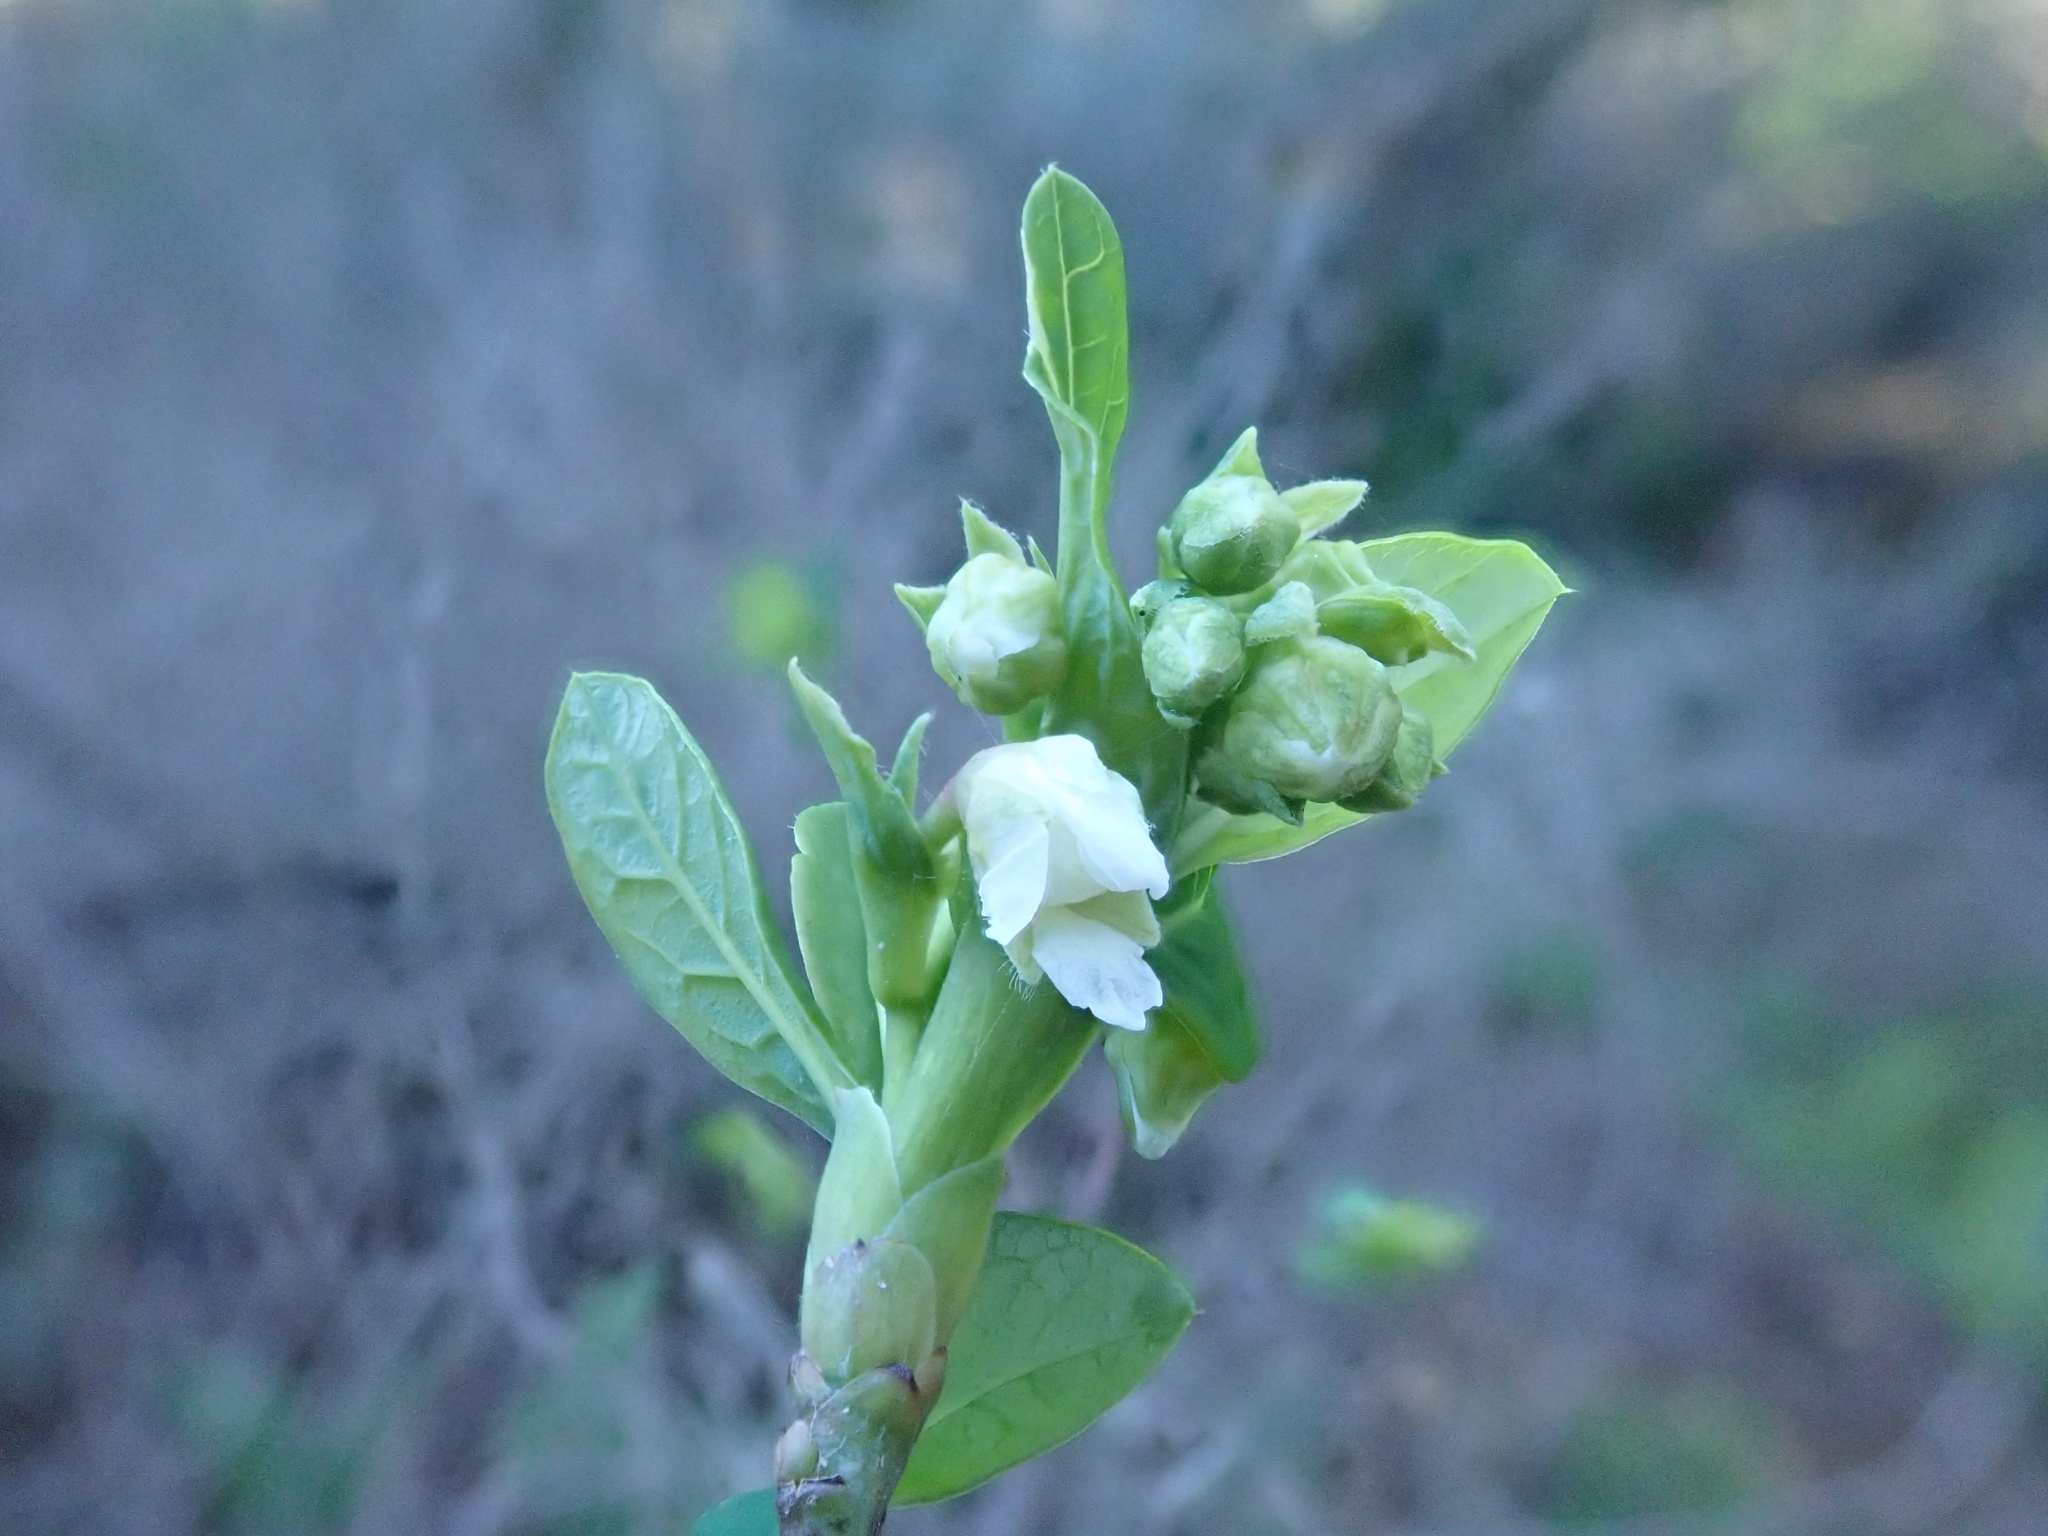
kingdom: Plantae
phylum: Tracheophyta
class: Magnoliopsida
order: Rosales
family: Rosaceae
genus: Oemleria
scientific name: Oemleria cerasiformis
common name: Osoberry
